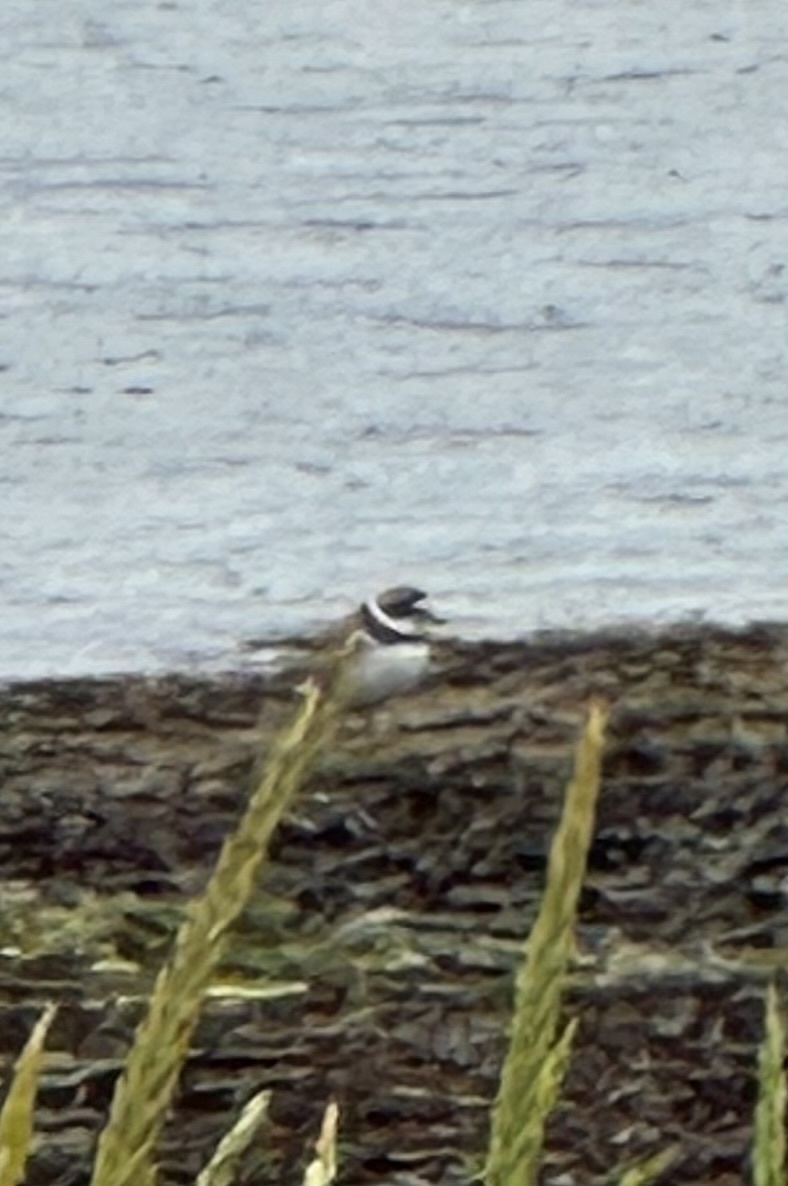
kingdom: Animalia
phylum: Chordata
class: Aves
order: Charadriiformes
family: Charadriidae
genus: Charadrius
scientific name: Charadrius semipalmatus
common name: Semipalmated plover
